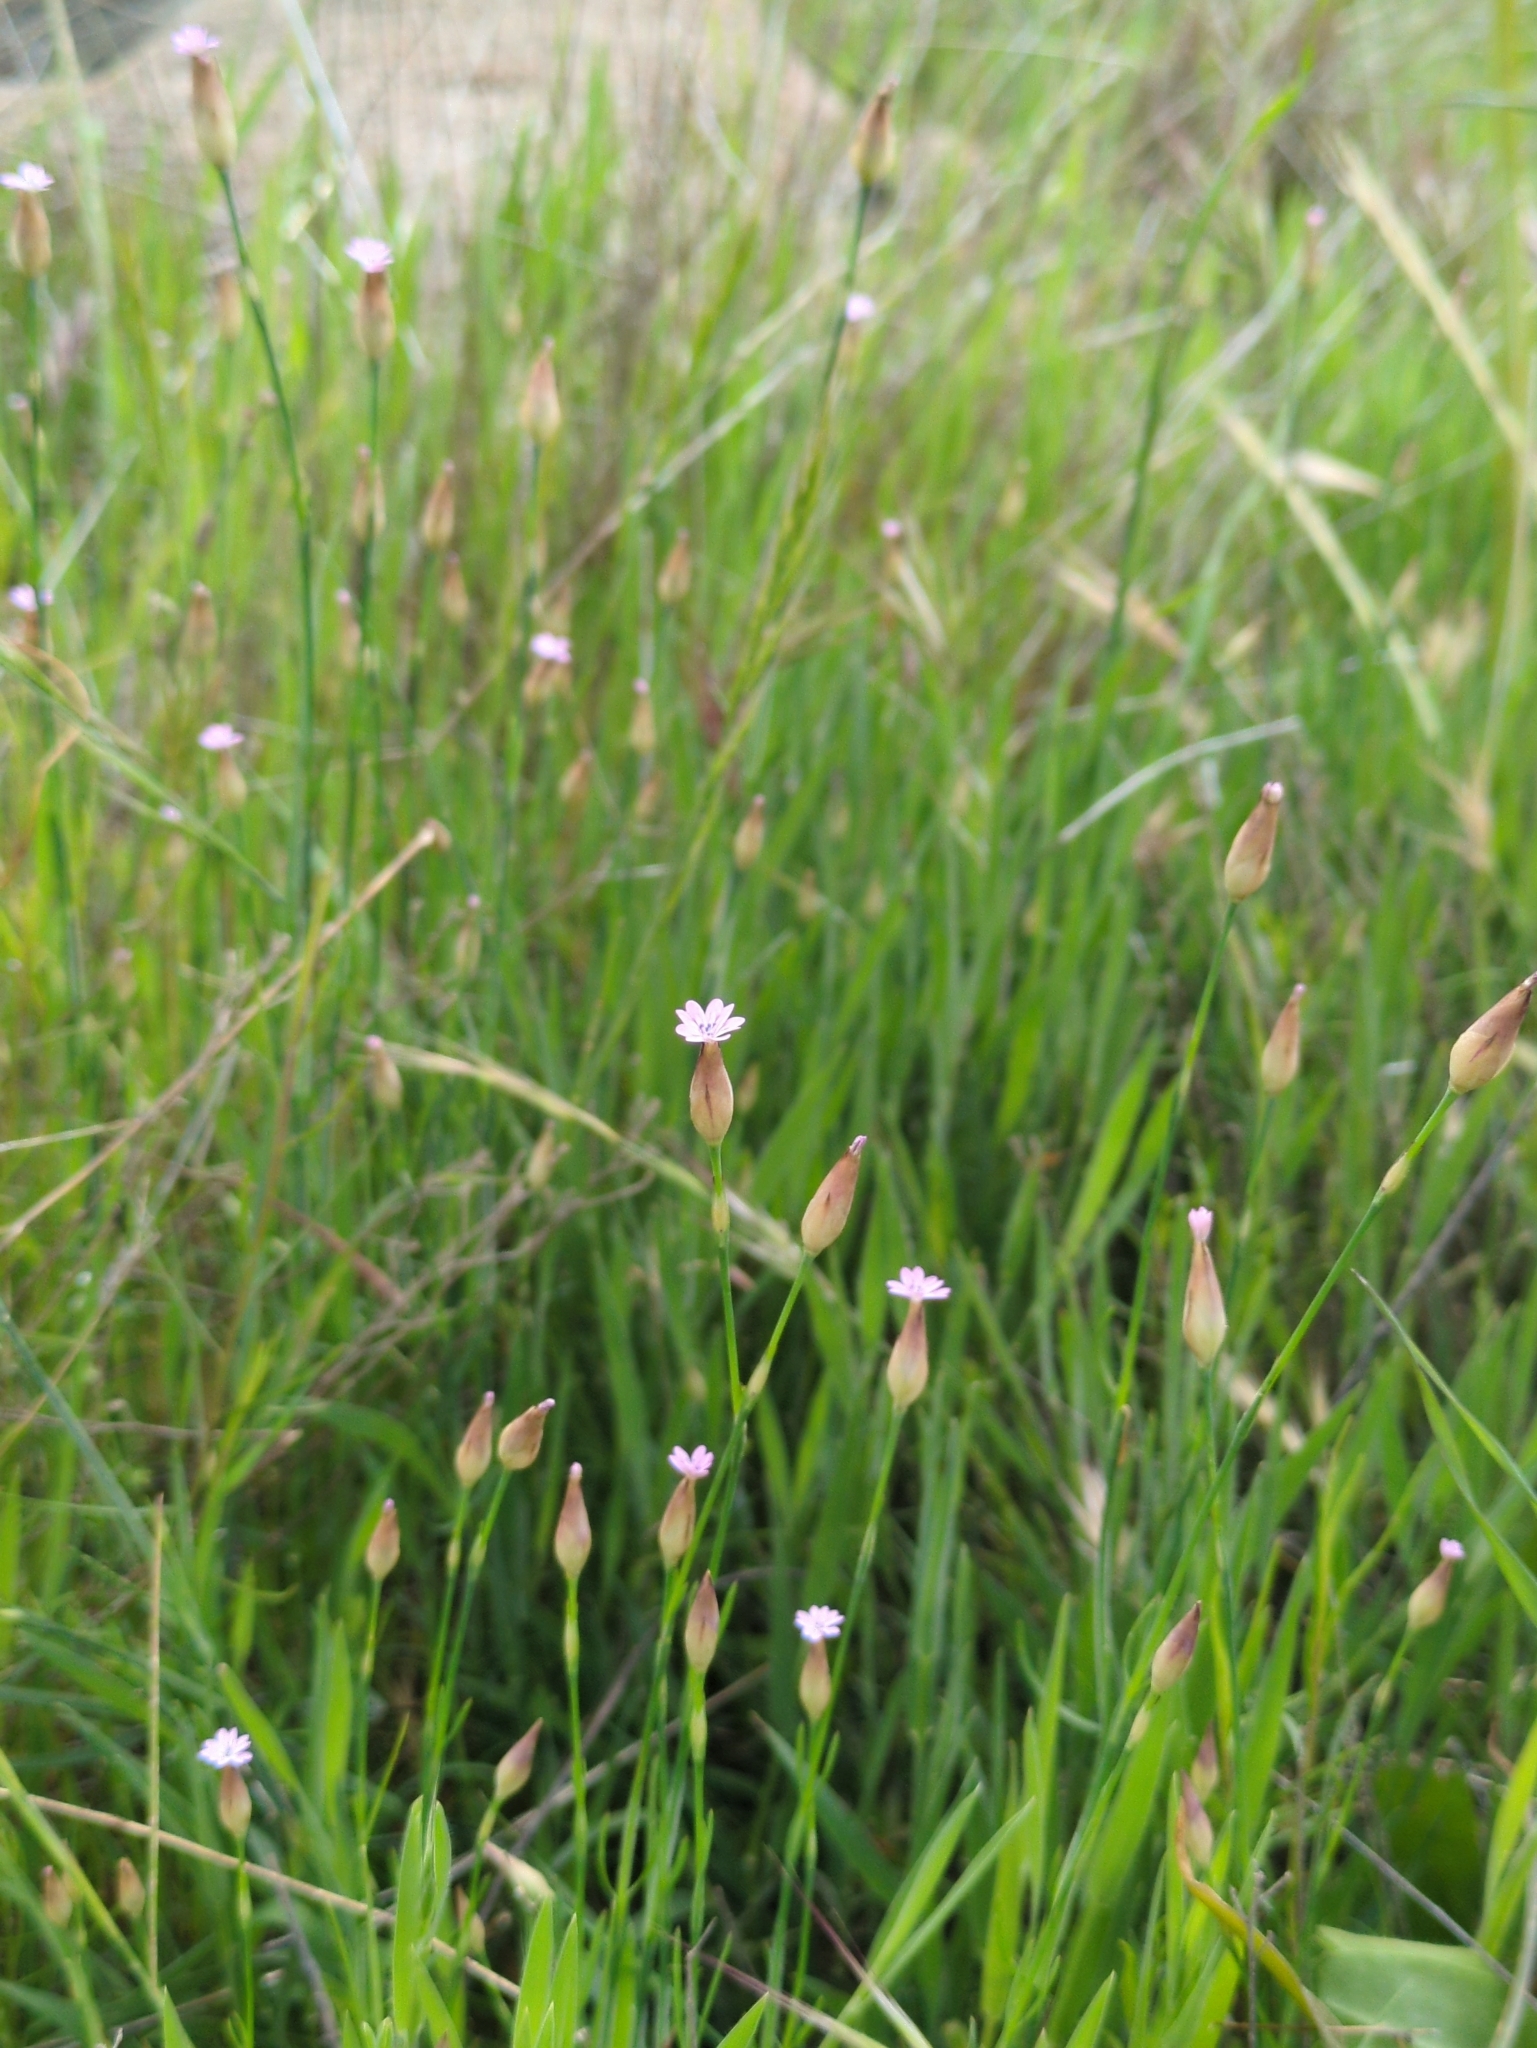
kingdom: Plantae
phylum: Tracheophyta
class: Magnoliopsida
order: Caryophyllales
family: Caryophyllaceae
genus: Petrorhagia
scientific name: Petrorhagia dubia
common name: Hairypink
